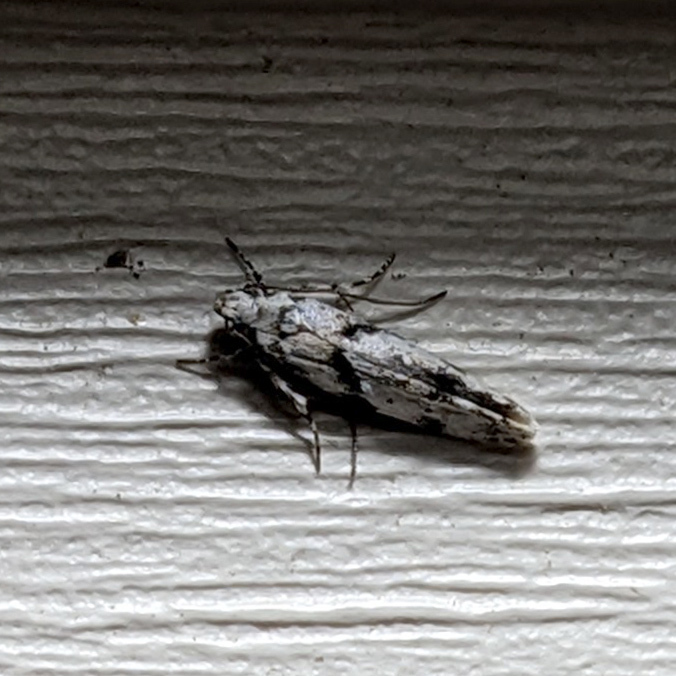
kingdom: Animalia
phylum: Arthropoda
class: Insecta
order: Lepidoptera
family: Gelechiidae
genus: Arogalea
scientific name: Arogalea cristifasciella
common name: White stripe-backed moth
